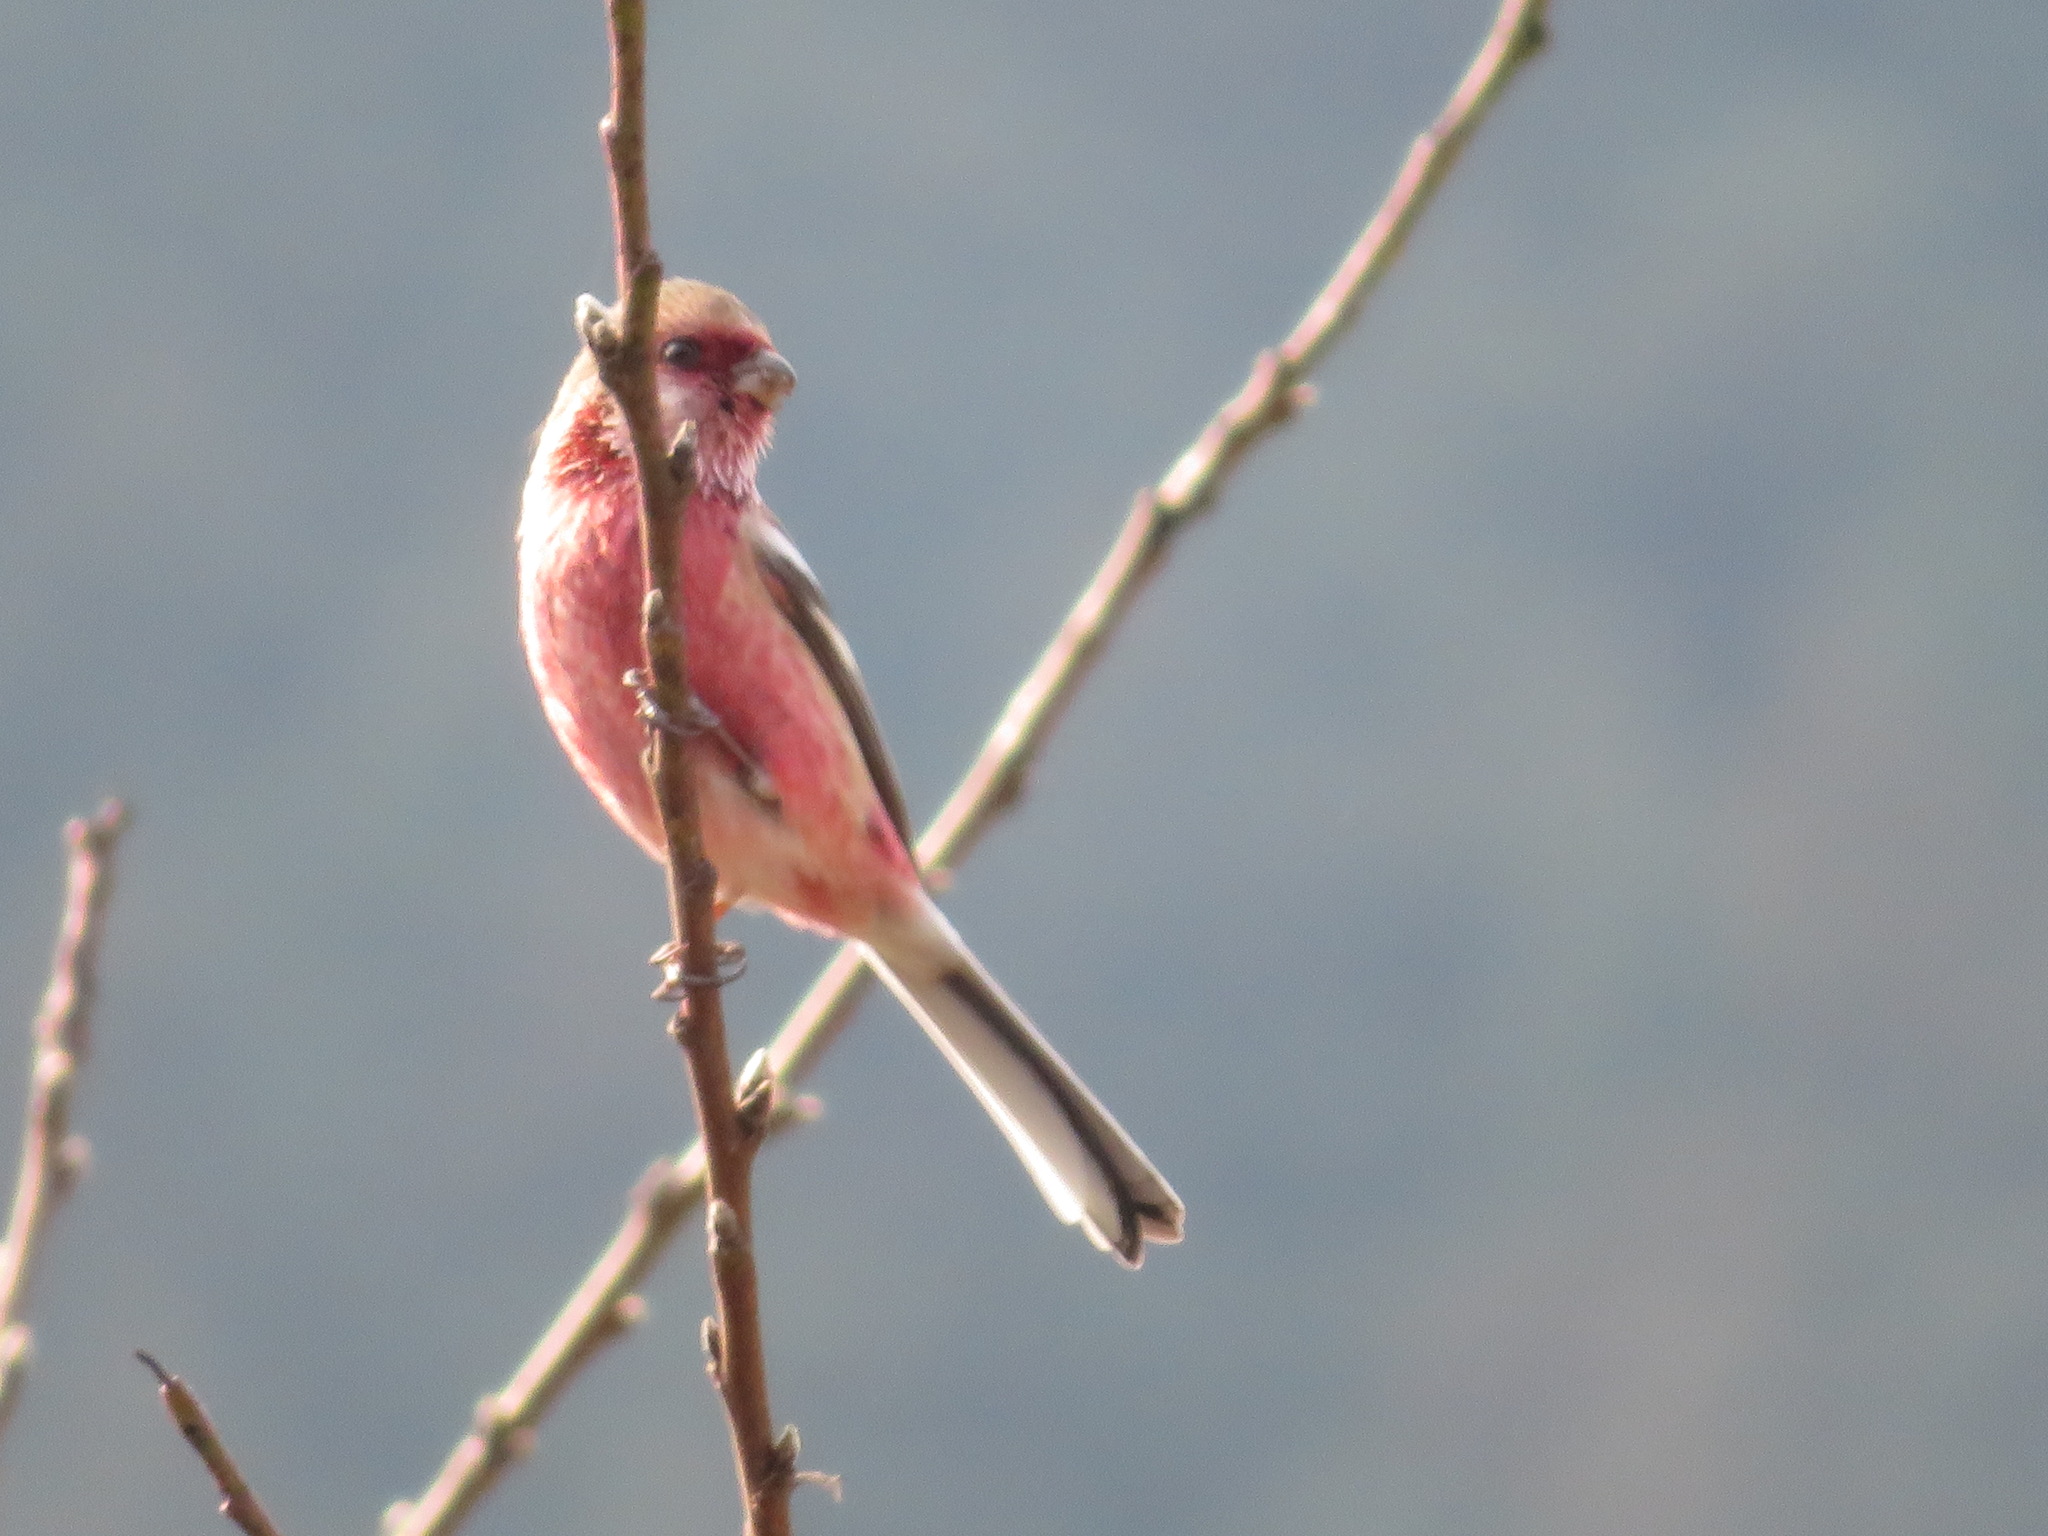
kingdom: Animalia
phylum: Chordata
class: Aves
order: Passeriformes
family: Fringillidae
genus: Carpodacus
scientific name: Carpodacus sibiricus
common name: Long-tailed rosefinch
